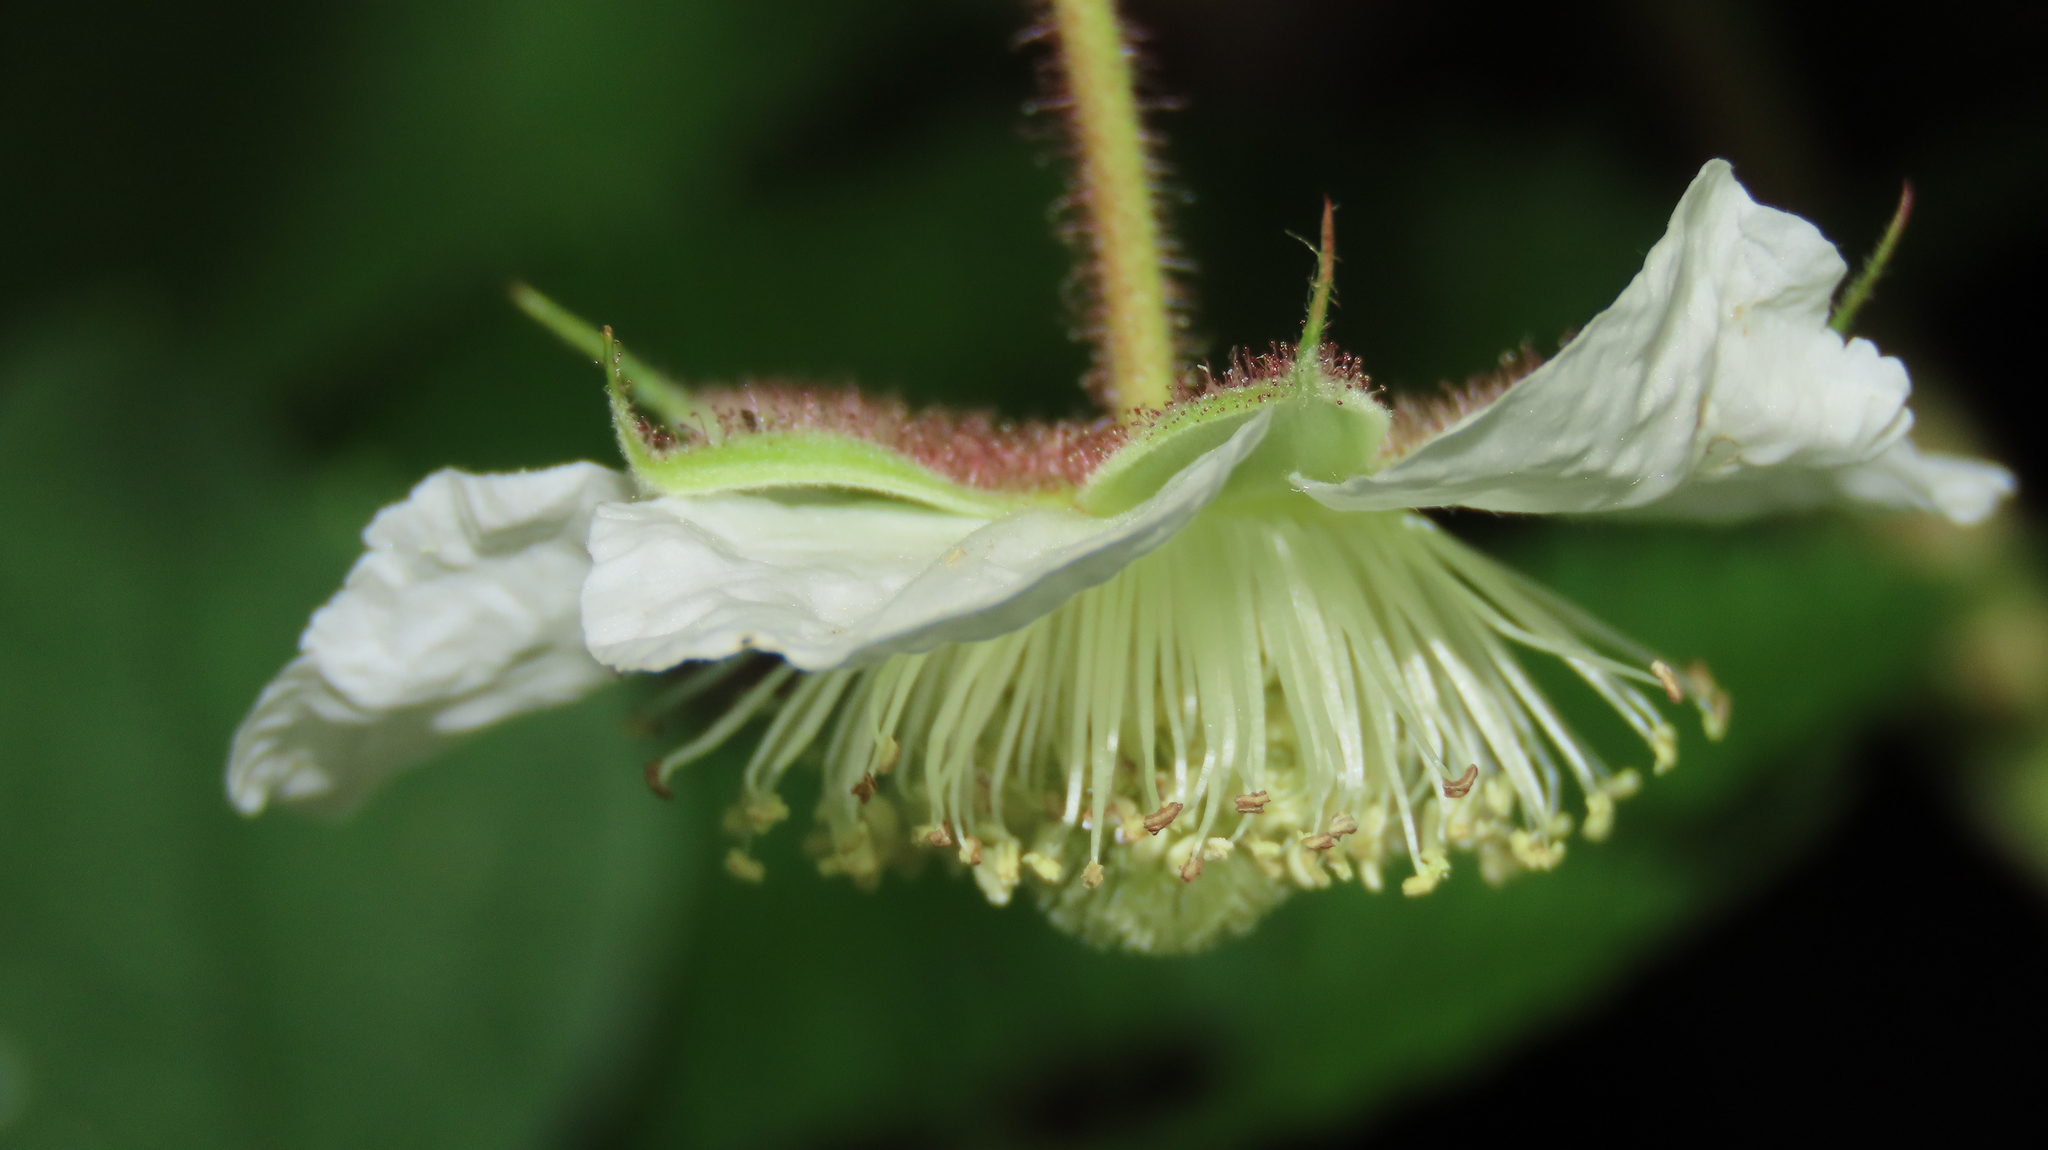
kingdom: Plantae
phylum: Tracheophyta
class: Magnoliopsida
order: Rosales
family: Rosaceae
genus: Rubus
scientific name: Rubus croceacanthus
